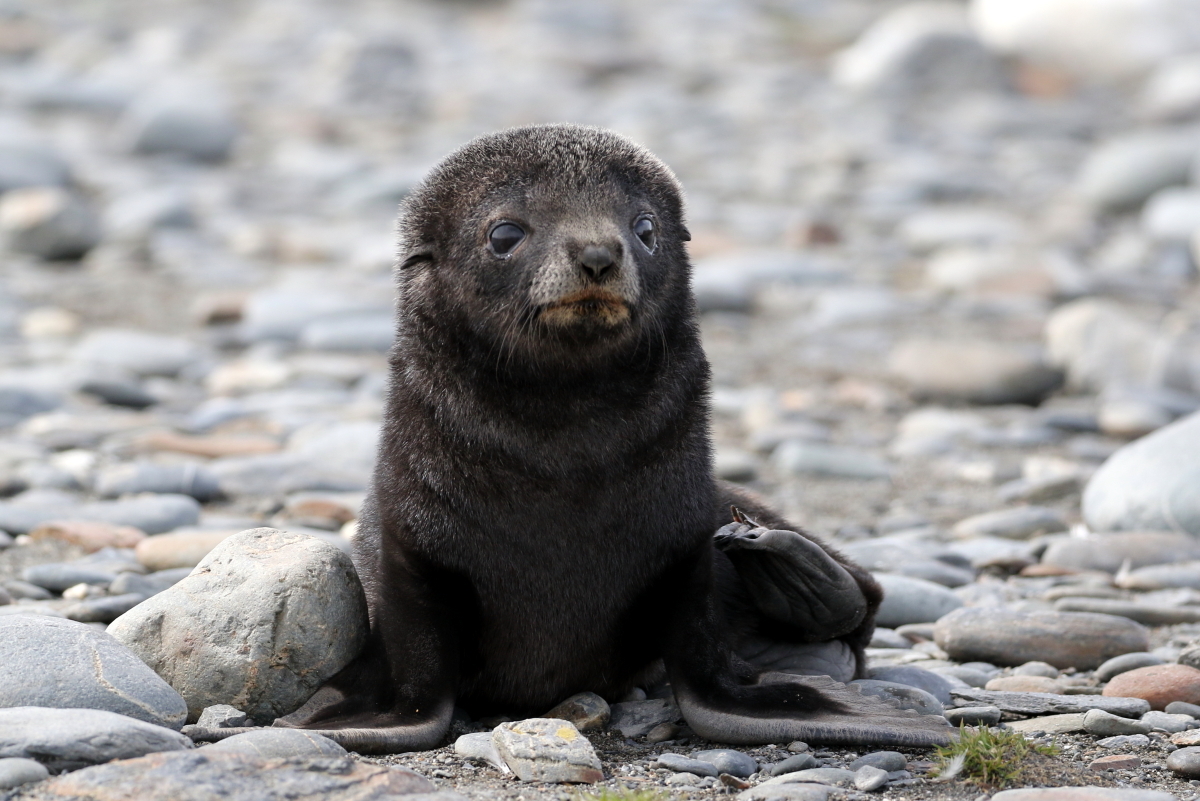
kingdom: Animalia
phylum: Chordata
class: Mammalia
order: Carnivora
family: Otariidae
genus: Arctocephalus
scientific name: Arctocephalus gazella
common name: Antarctic fur seal
